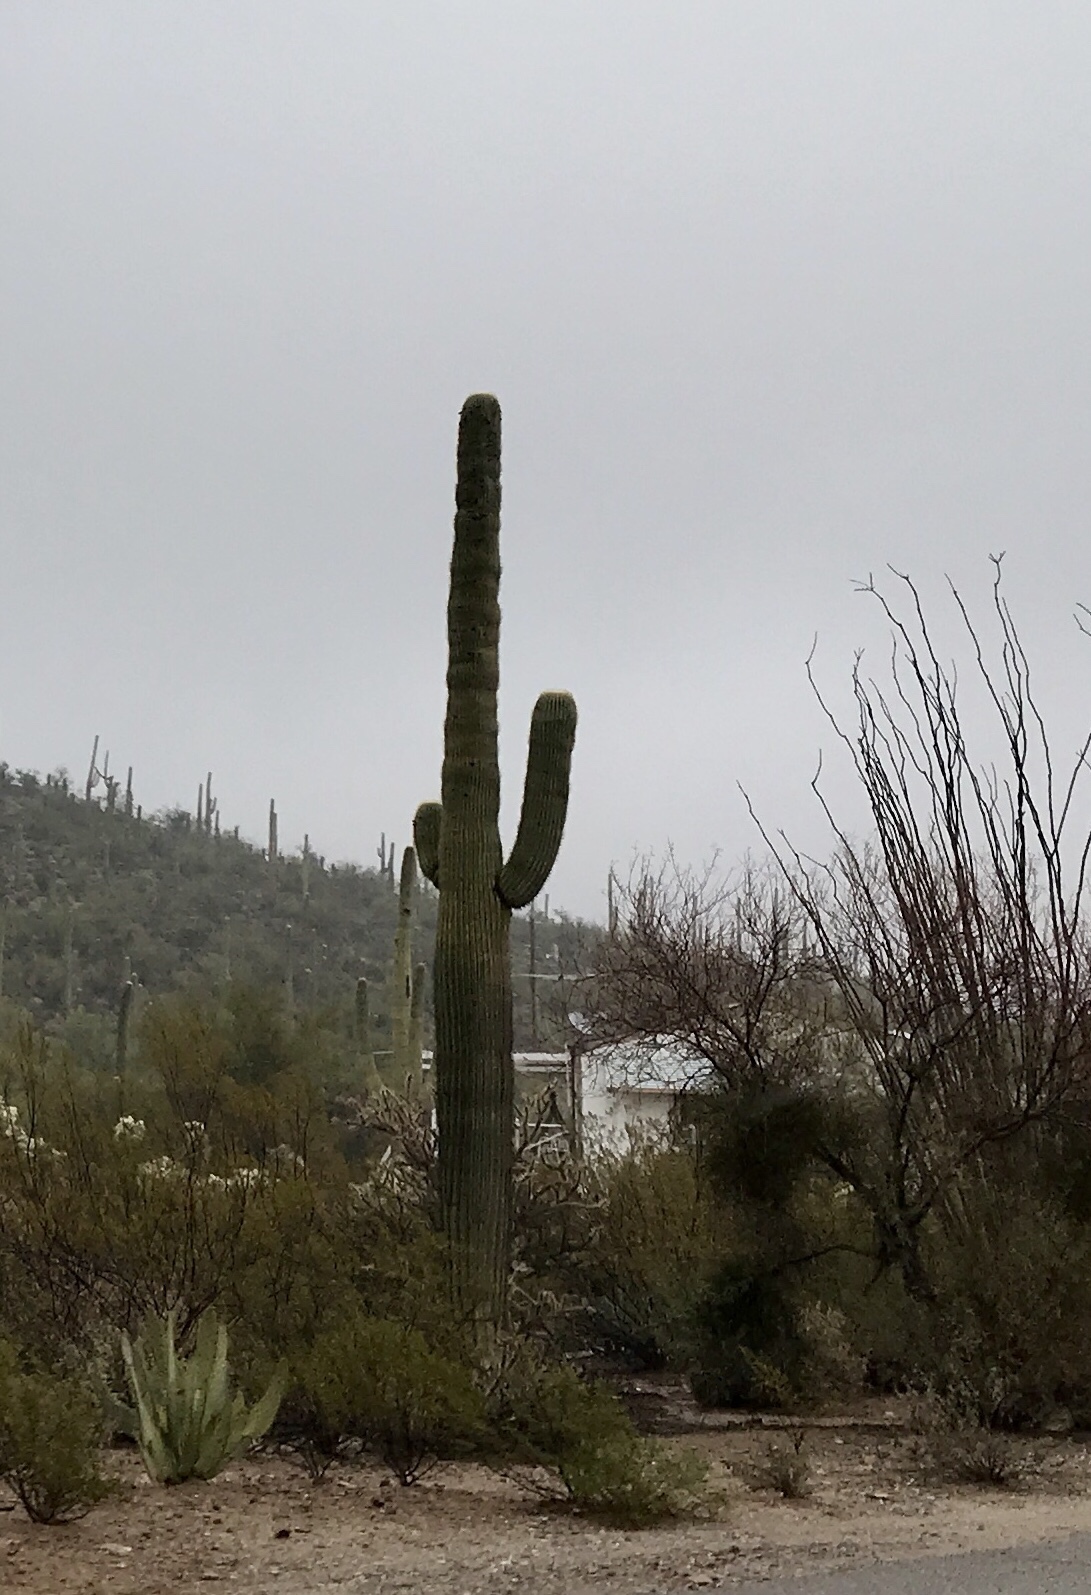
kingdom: Plantae
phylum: Tracheophyta
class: Magnoliopsida
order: Caryophyllales
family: Cactaceae
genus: Carnegiea
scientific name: Carnegiea gigantea
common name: Saguaro
